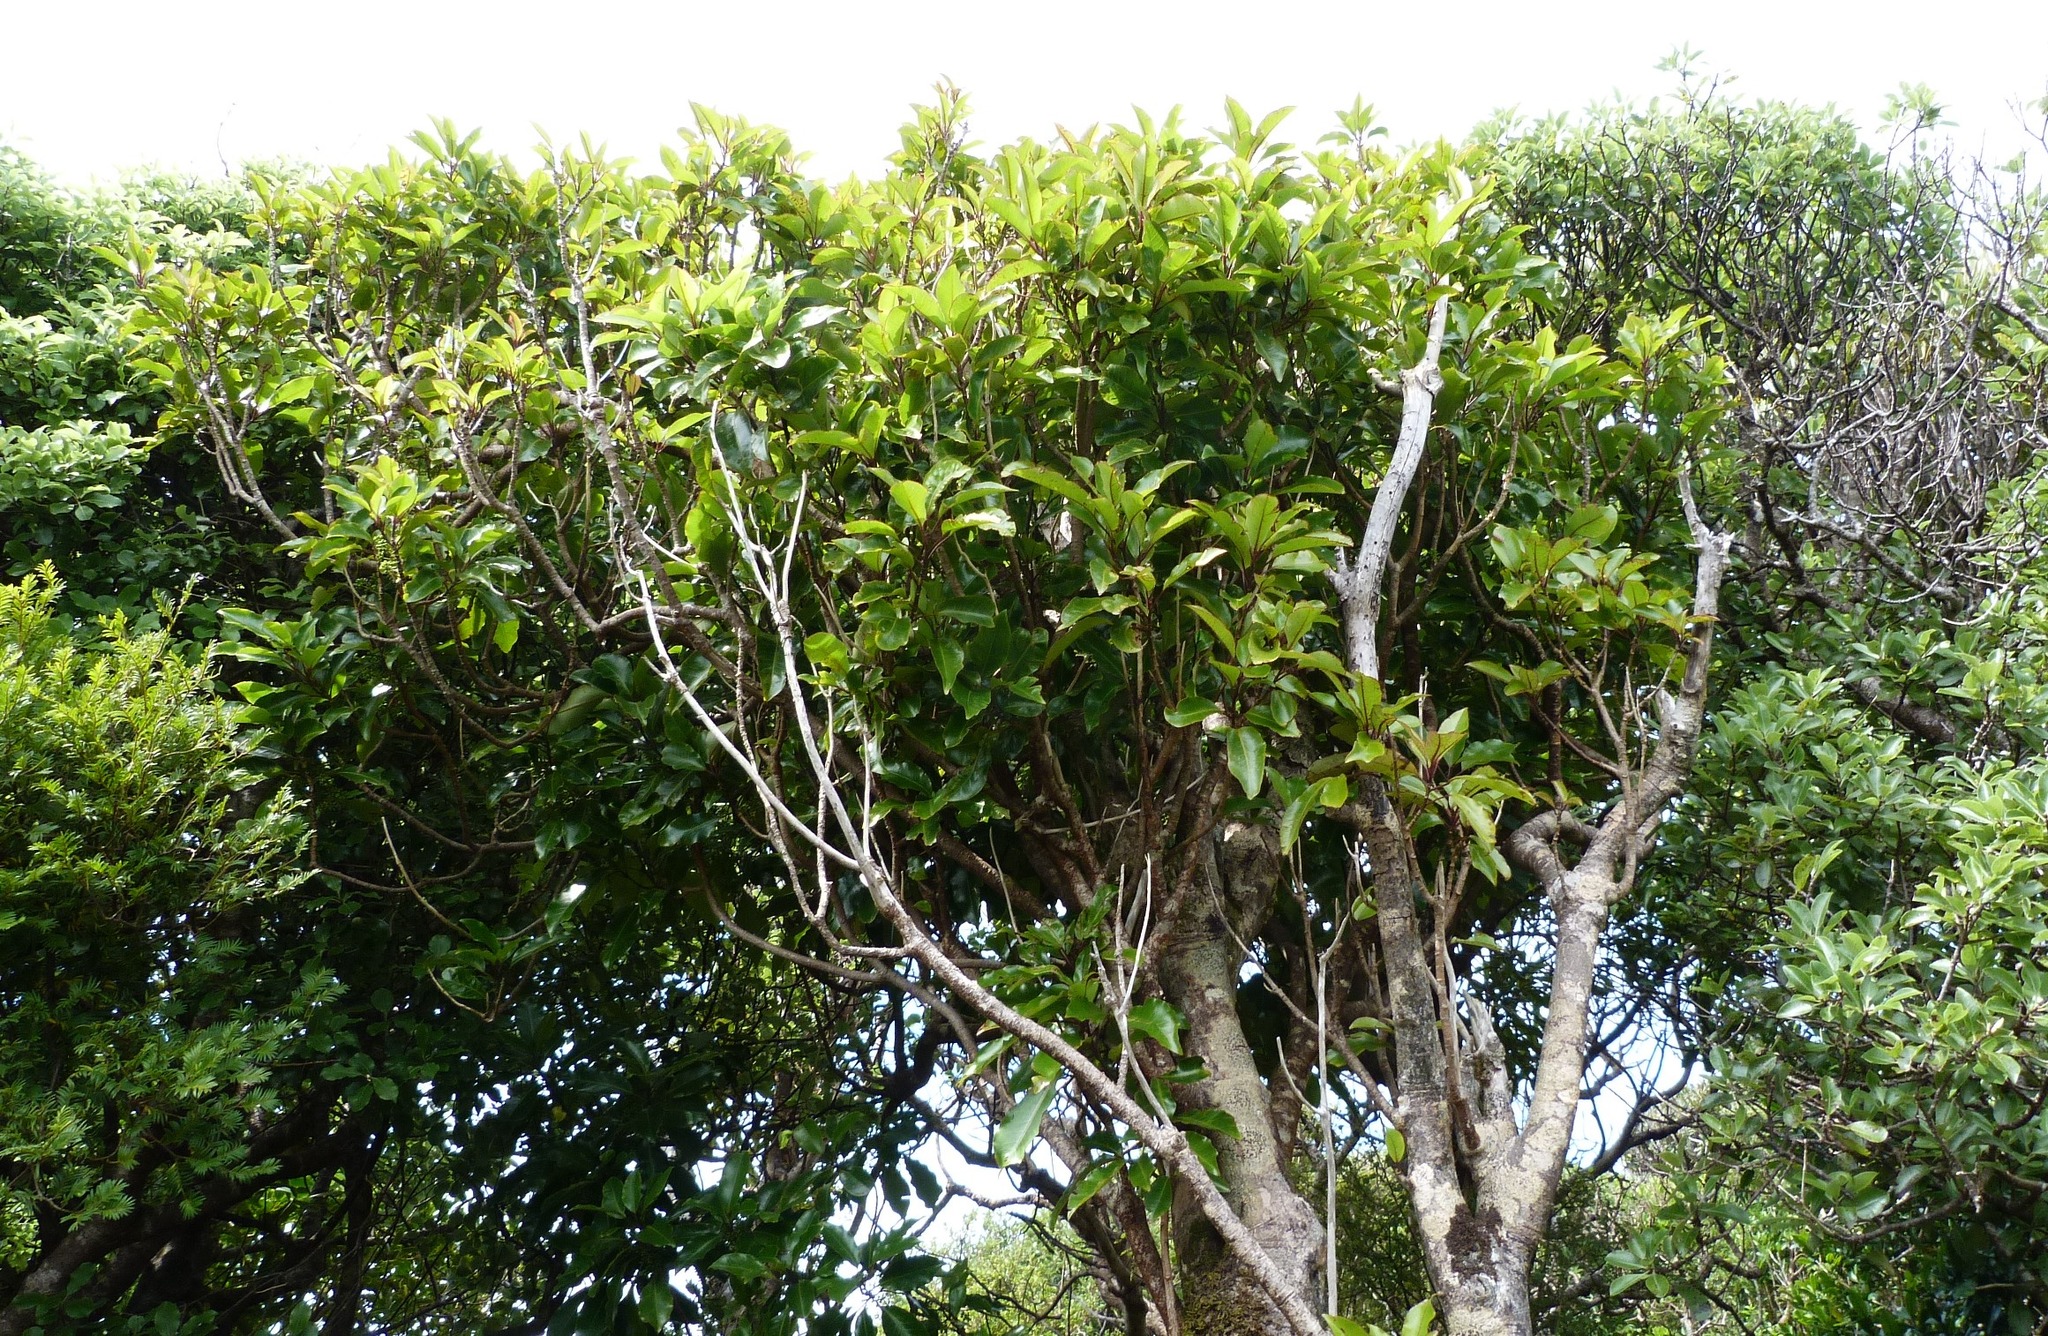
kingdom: Plantae
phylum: Tracheophyta
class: Magnoliopsida
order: Apiales
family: Araliaceae
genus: Raukaua
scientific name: Raukaua edgerleyi
